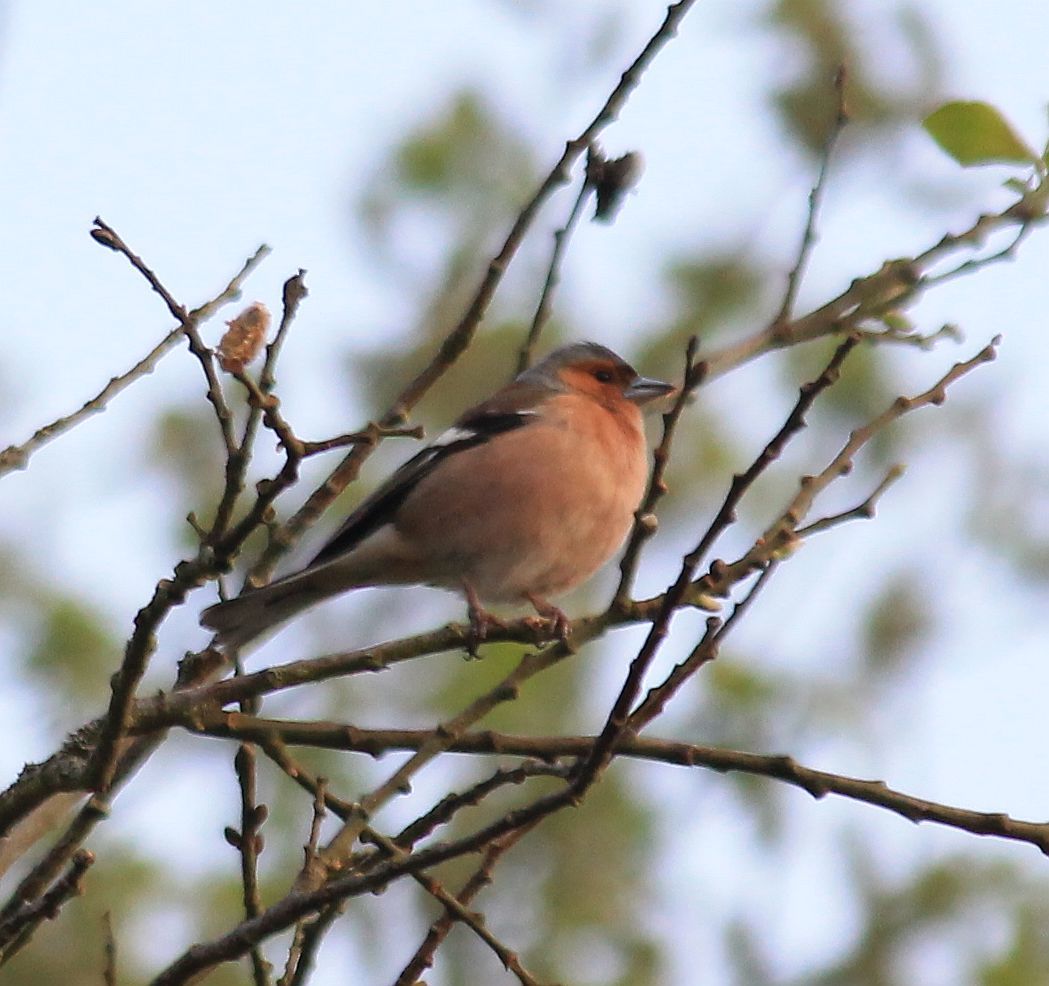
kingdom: Animalia
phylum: Chordata
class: Aves
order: Passeriformes
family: Fringillidae
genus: Fringilla
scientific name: Fringilla coelebs
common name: Common chaffinch
